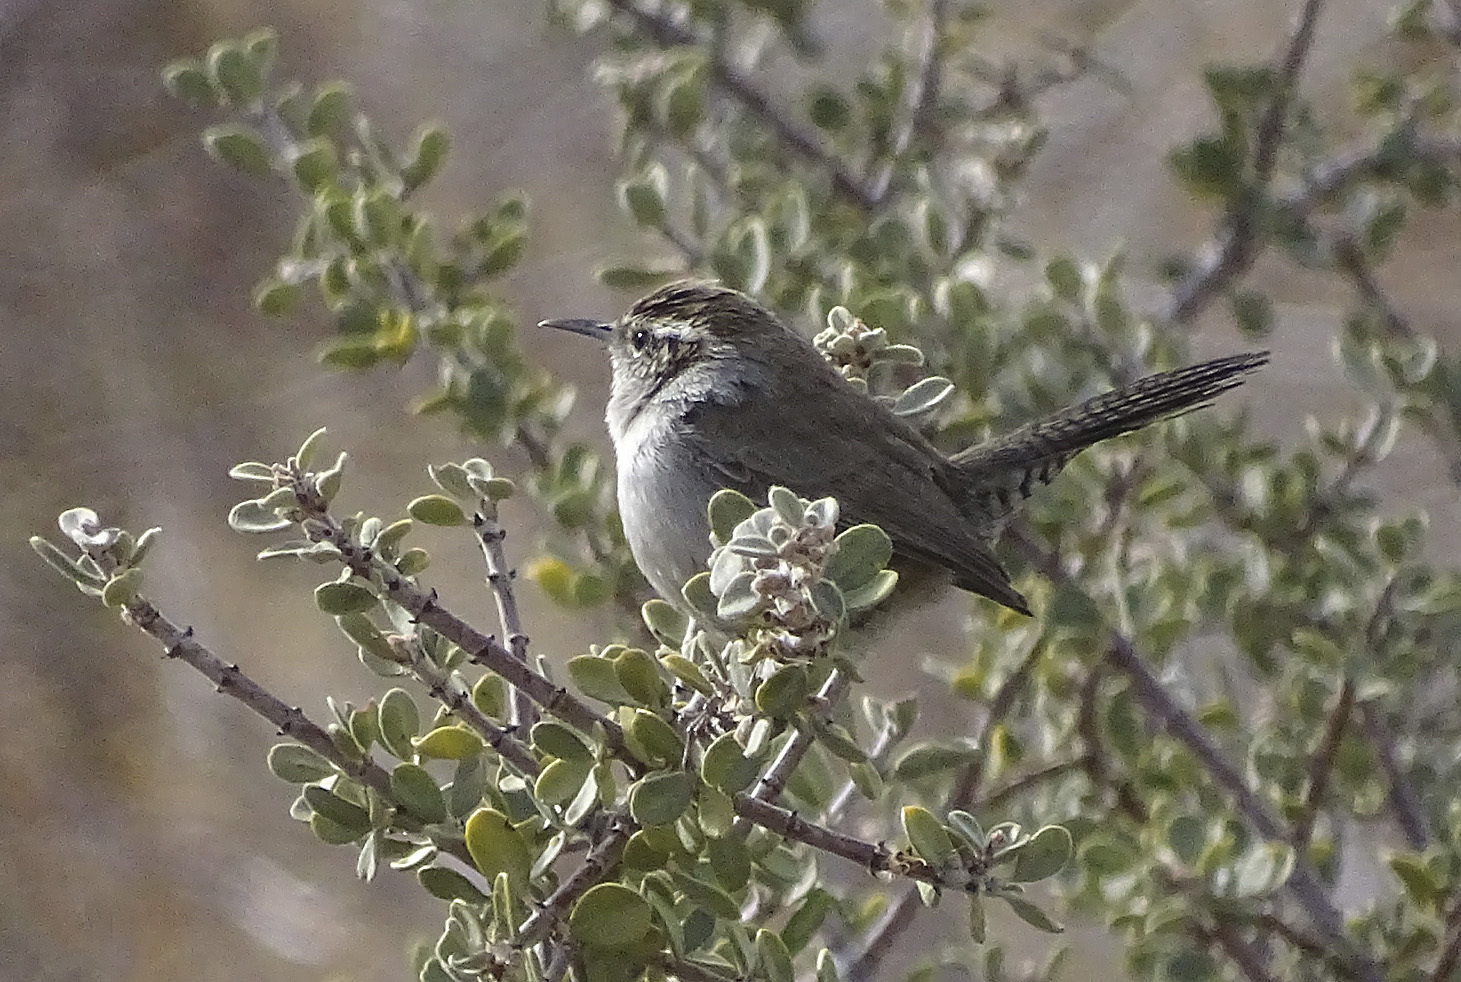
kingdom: Animalia
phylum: Chordata
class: Aves
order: Passeriformes
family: Troglodytidae
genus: Thryomanes
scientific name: Thryomanes bewickii
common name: Bewick's wren
